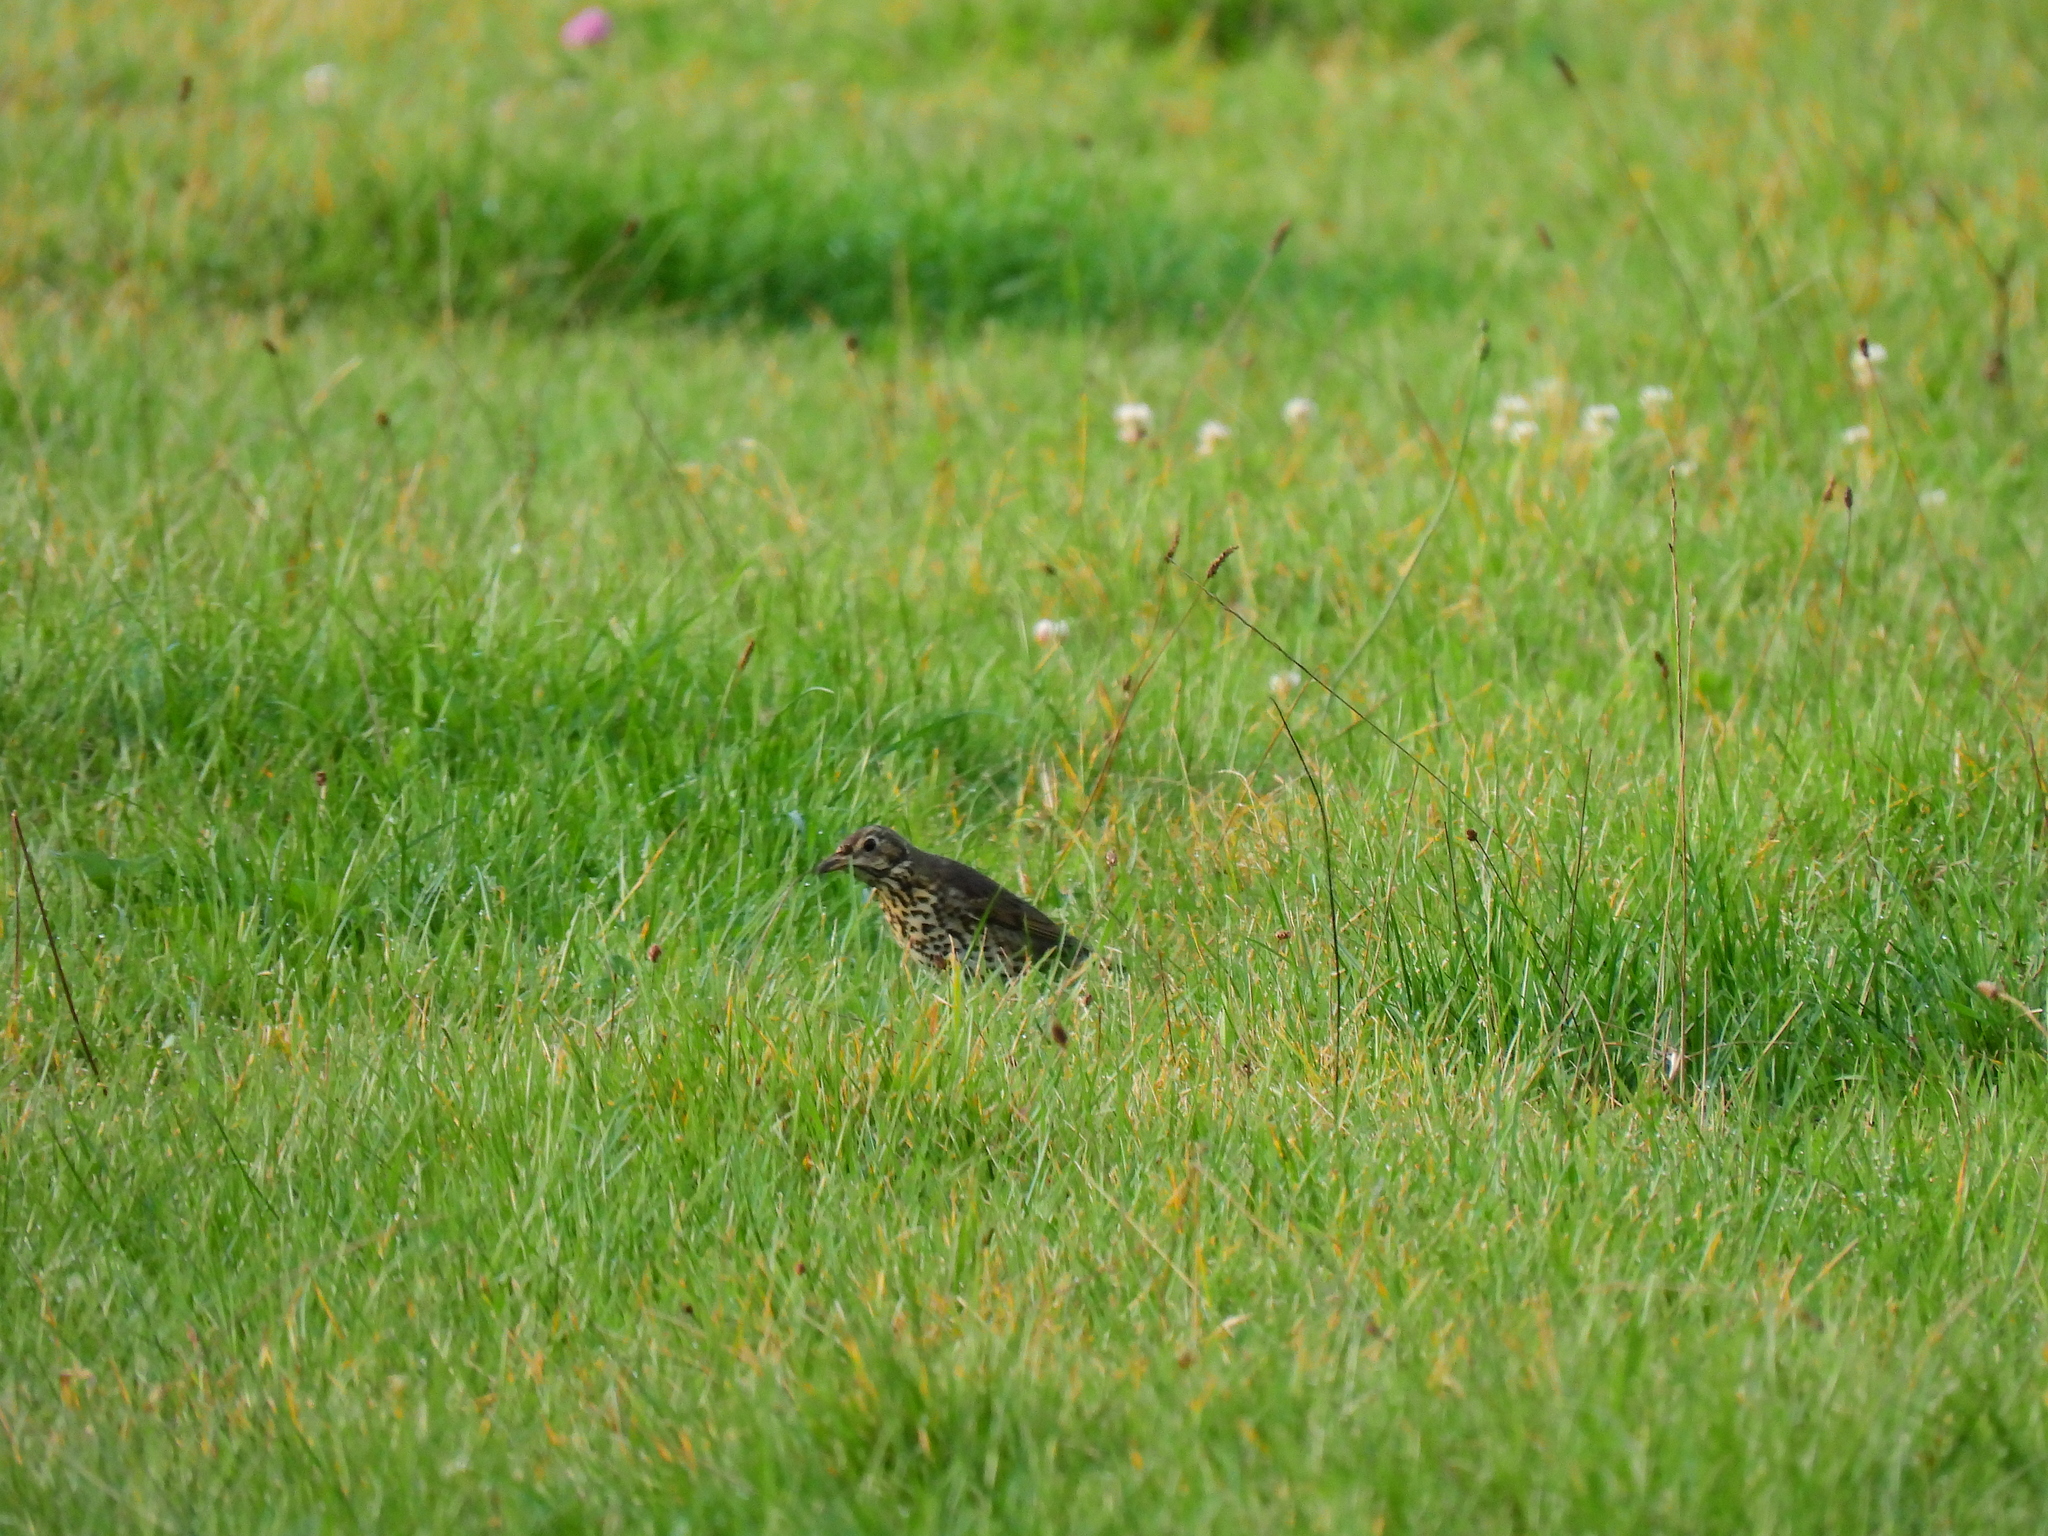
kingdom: Animalia
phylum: Chordata
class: Aves
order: Passeriformes
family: Turdidae
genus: Turdus
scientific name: Turdus philomelos
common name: Song thrush
